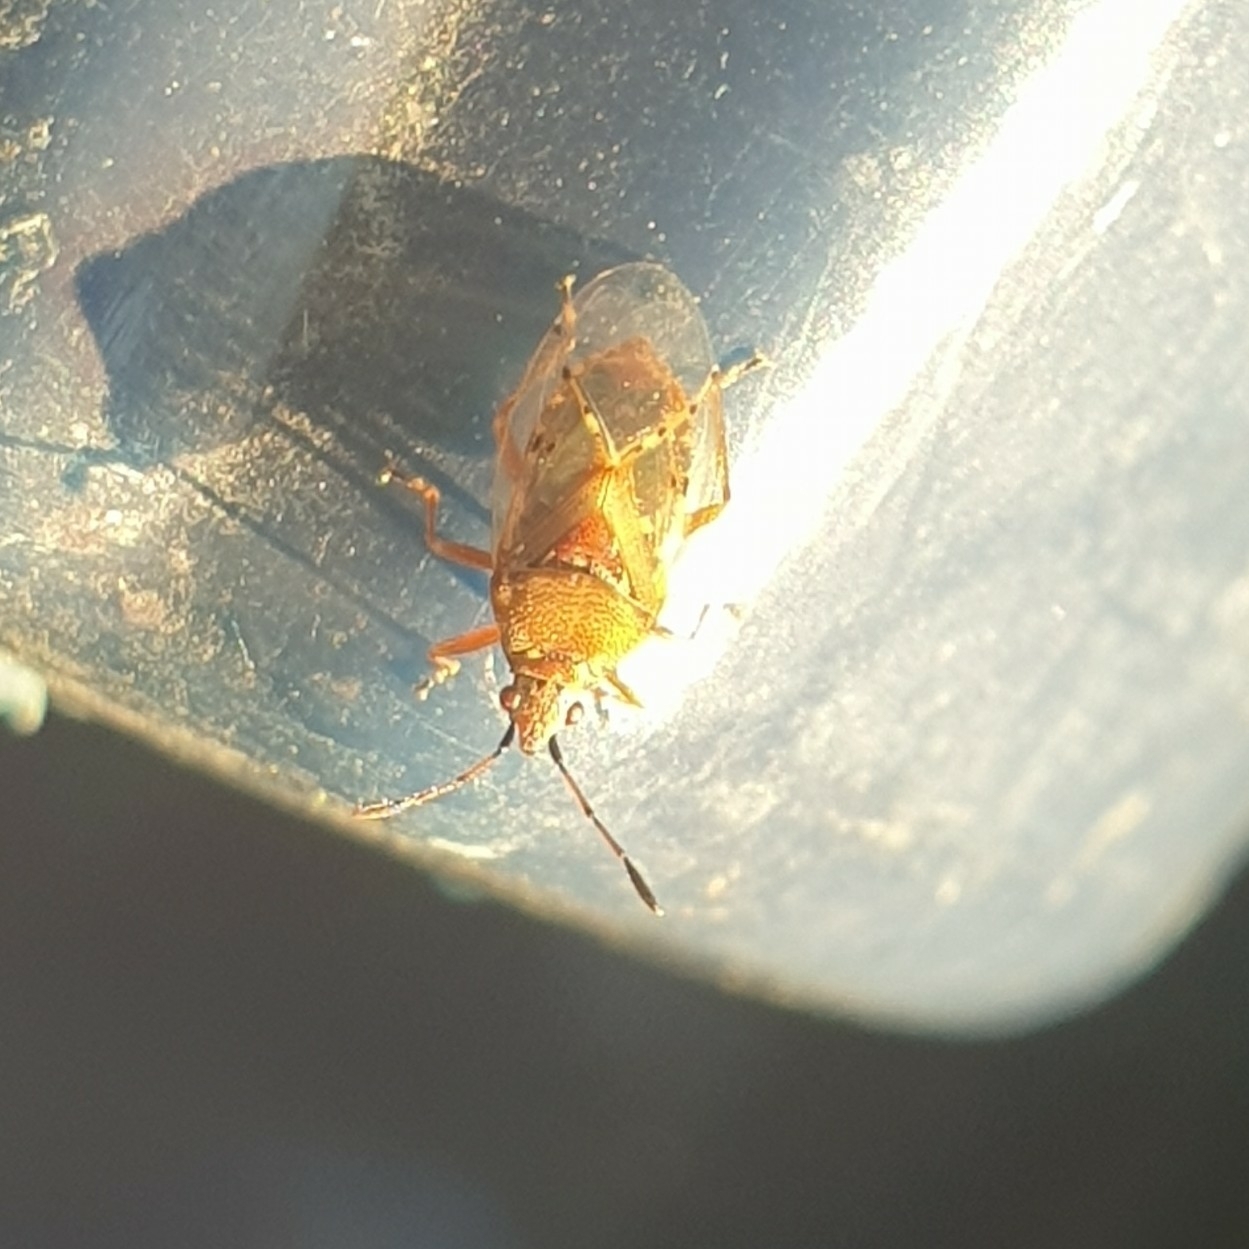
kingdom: Animalia
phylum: Arthropoda
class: Insecta
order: Hemiptera
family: Lygaeidae
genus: Kleidocerys
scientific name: Kleidocerys resedae
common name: Birch catkin bug
